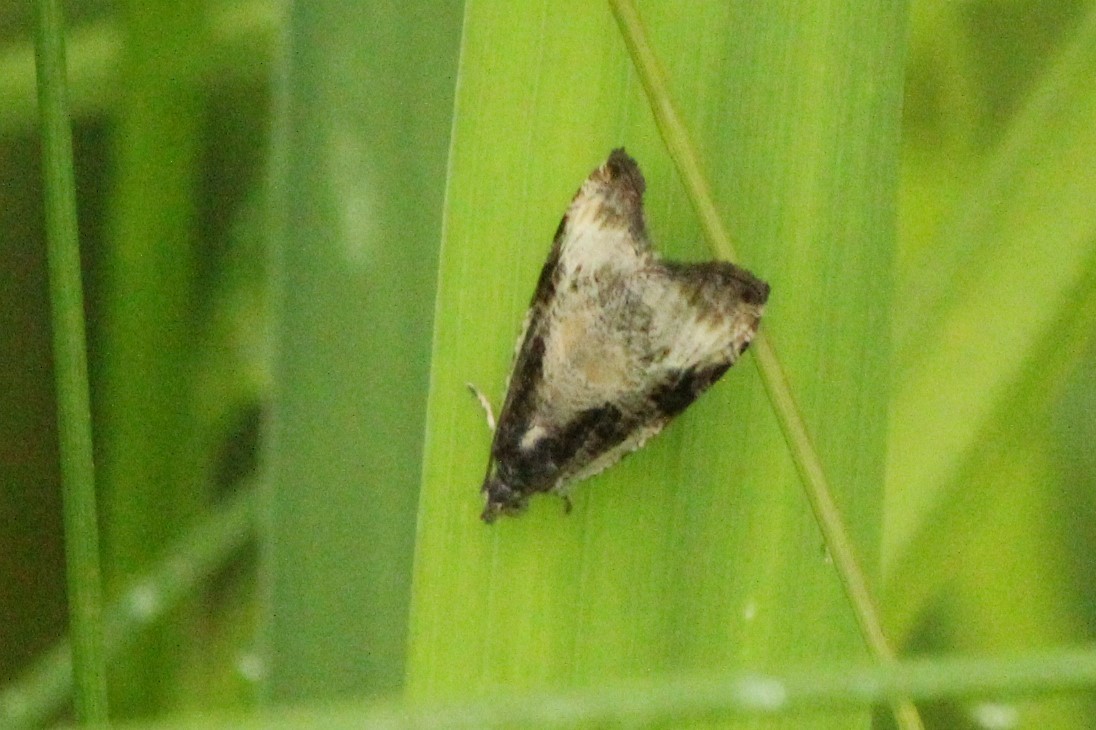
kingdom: Animalia
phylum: Arthropoda
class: Insecta
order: Lepidoptera
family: Tortricidae
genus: Olethreutes
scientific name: Olethreutes exoletum
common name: Wretched olethreutes moth
